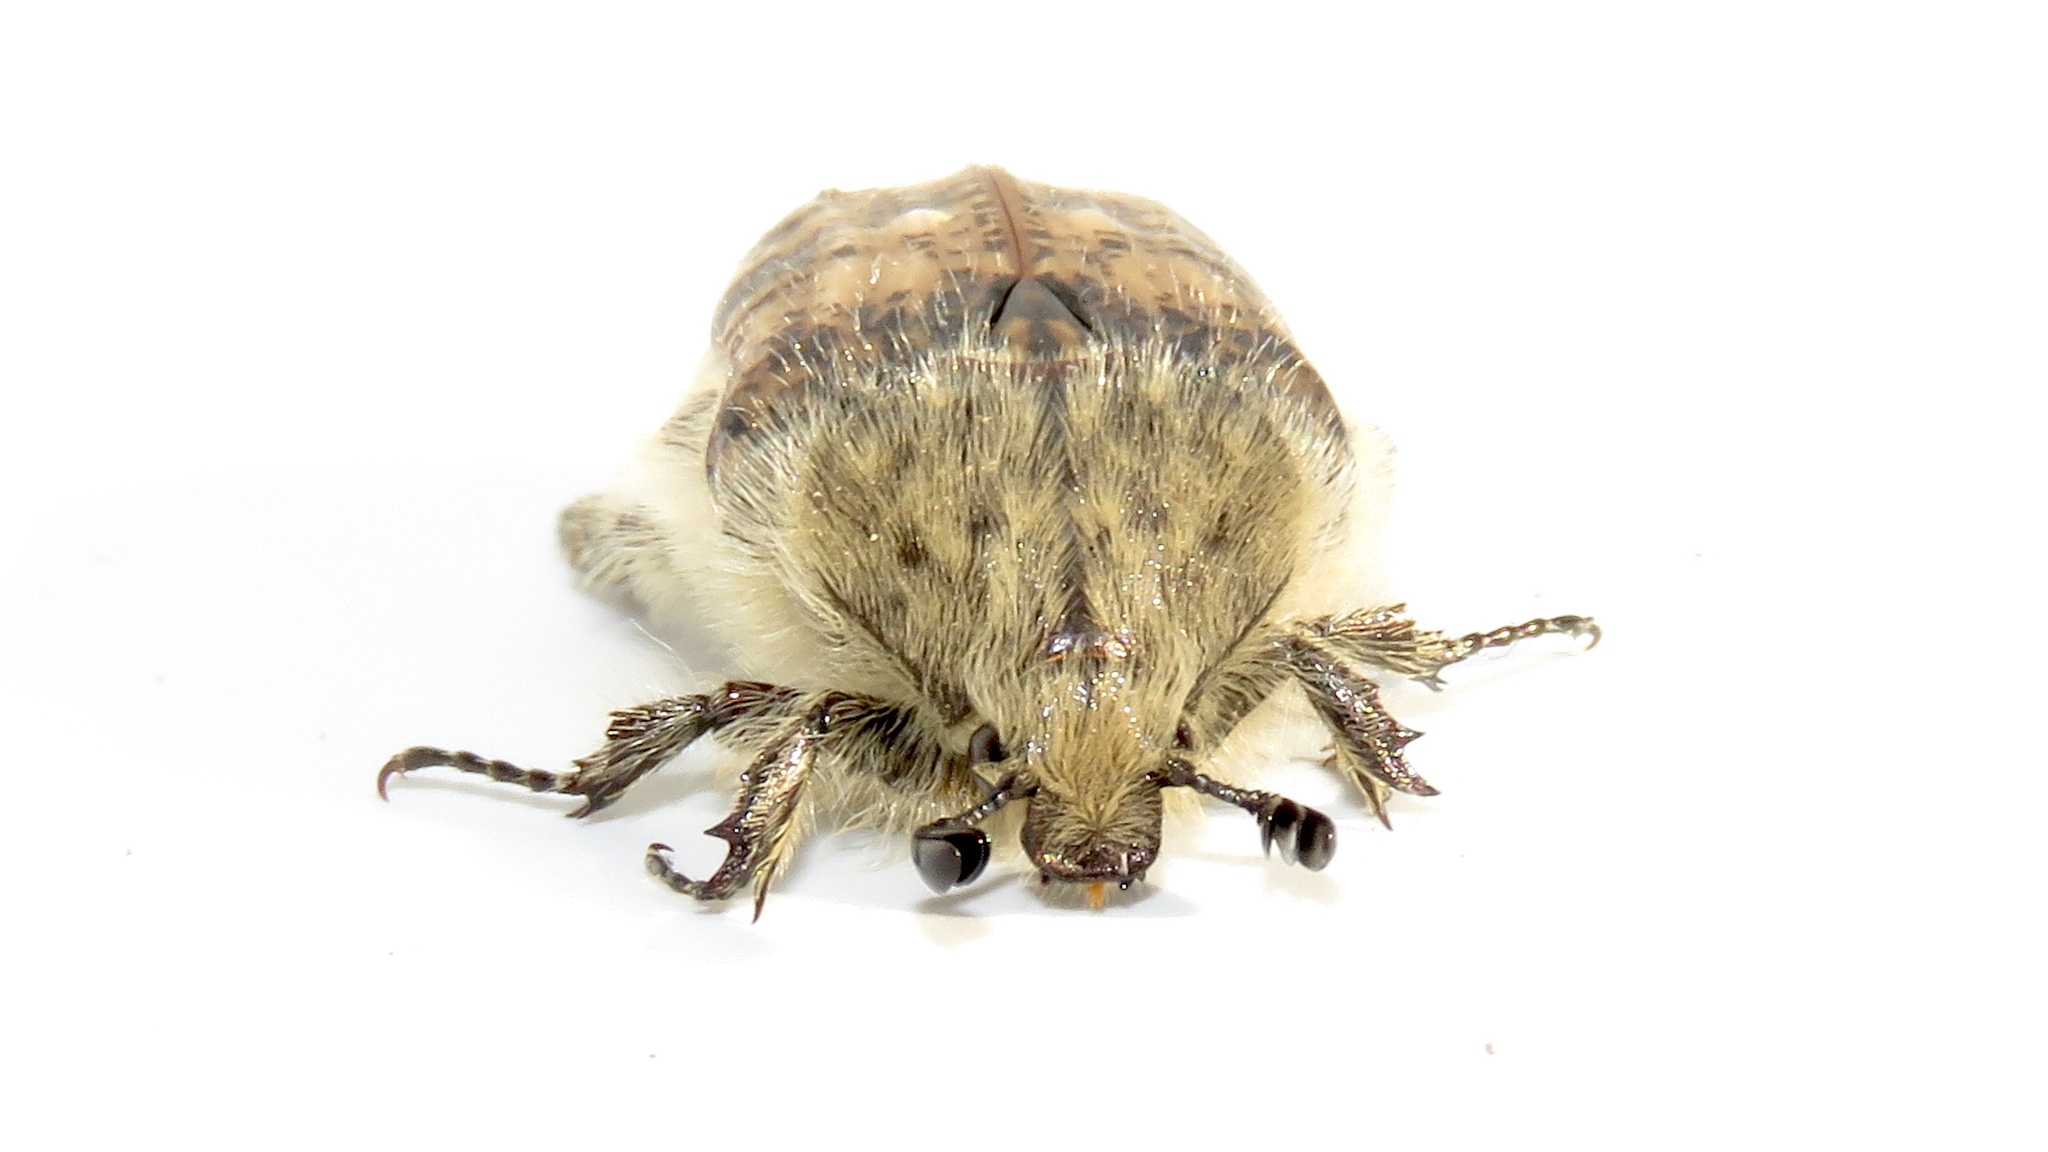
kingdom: Animalia
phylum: Arthropoda
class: Insecta
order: Coleoptera
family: Scarabaeidae
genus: Euphoria
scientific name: Euphoria inda
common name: Bumble flower beetle
